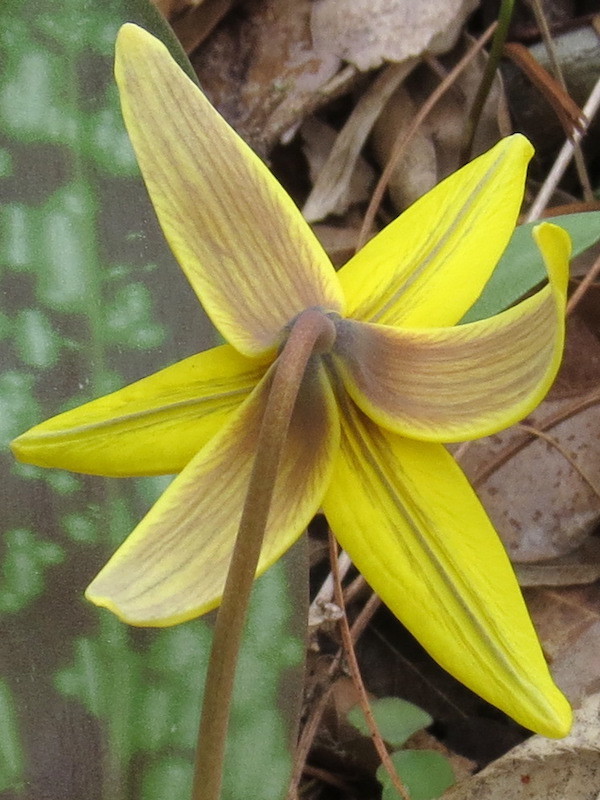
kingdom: Plantae
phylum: Tracheophyta
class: Liliopsida
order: Liliales
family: Liliaceae
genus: Erythronium
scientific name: Erythronium americanum
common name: Yellow adder's-tongue
